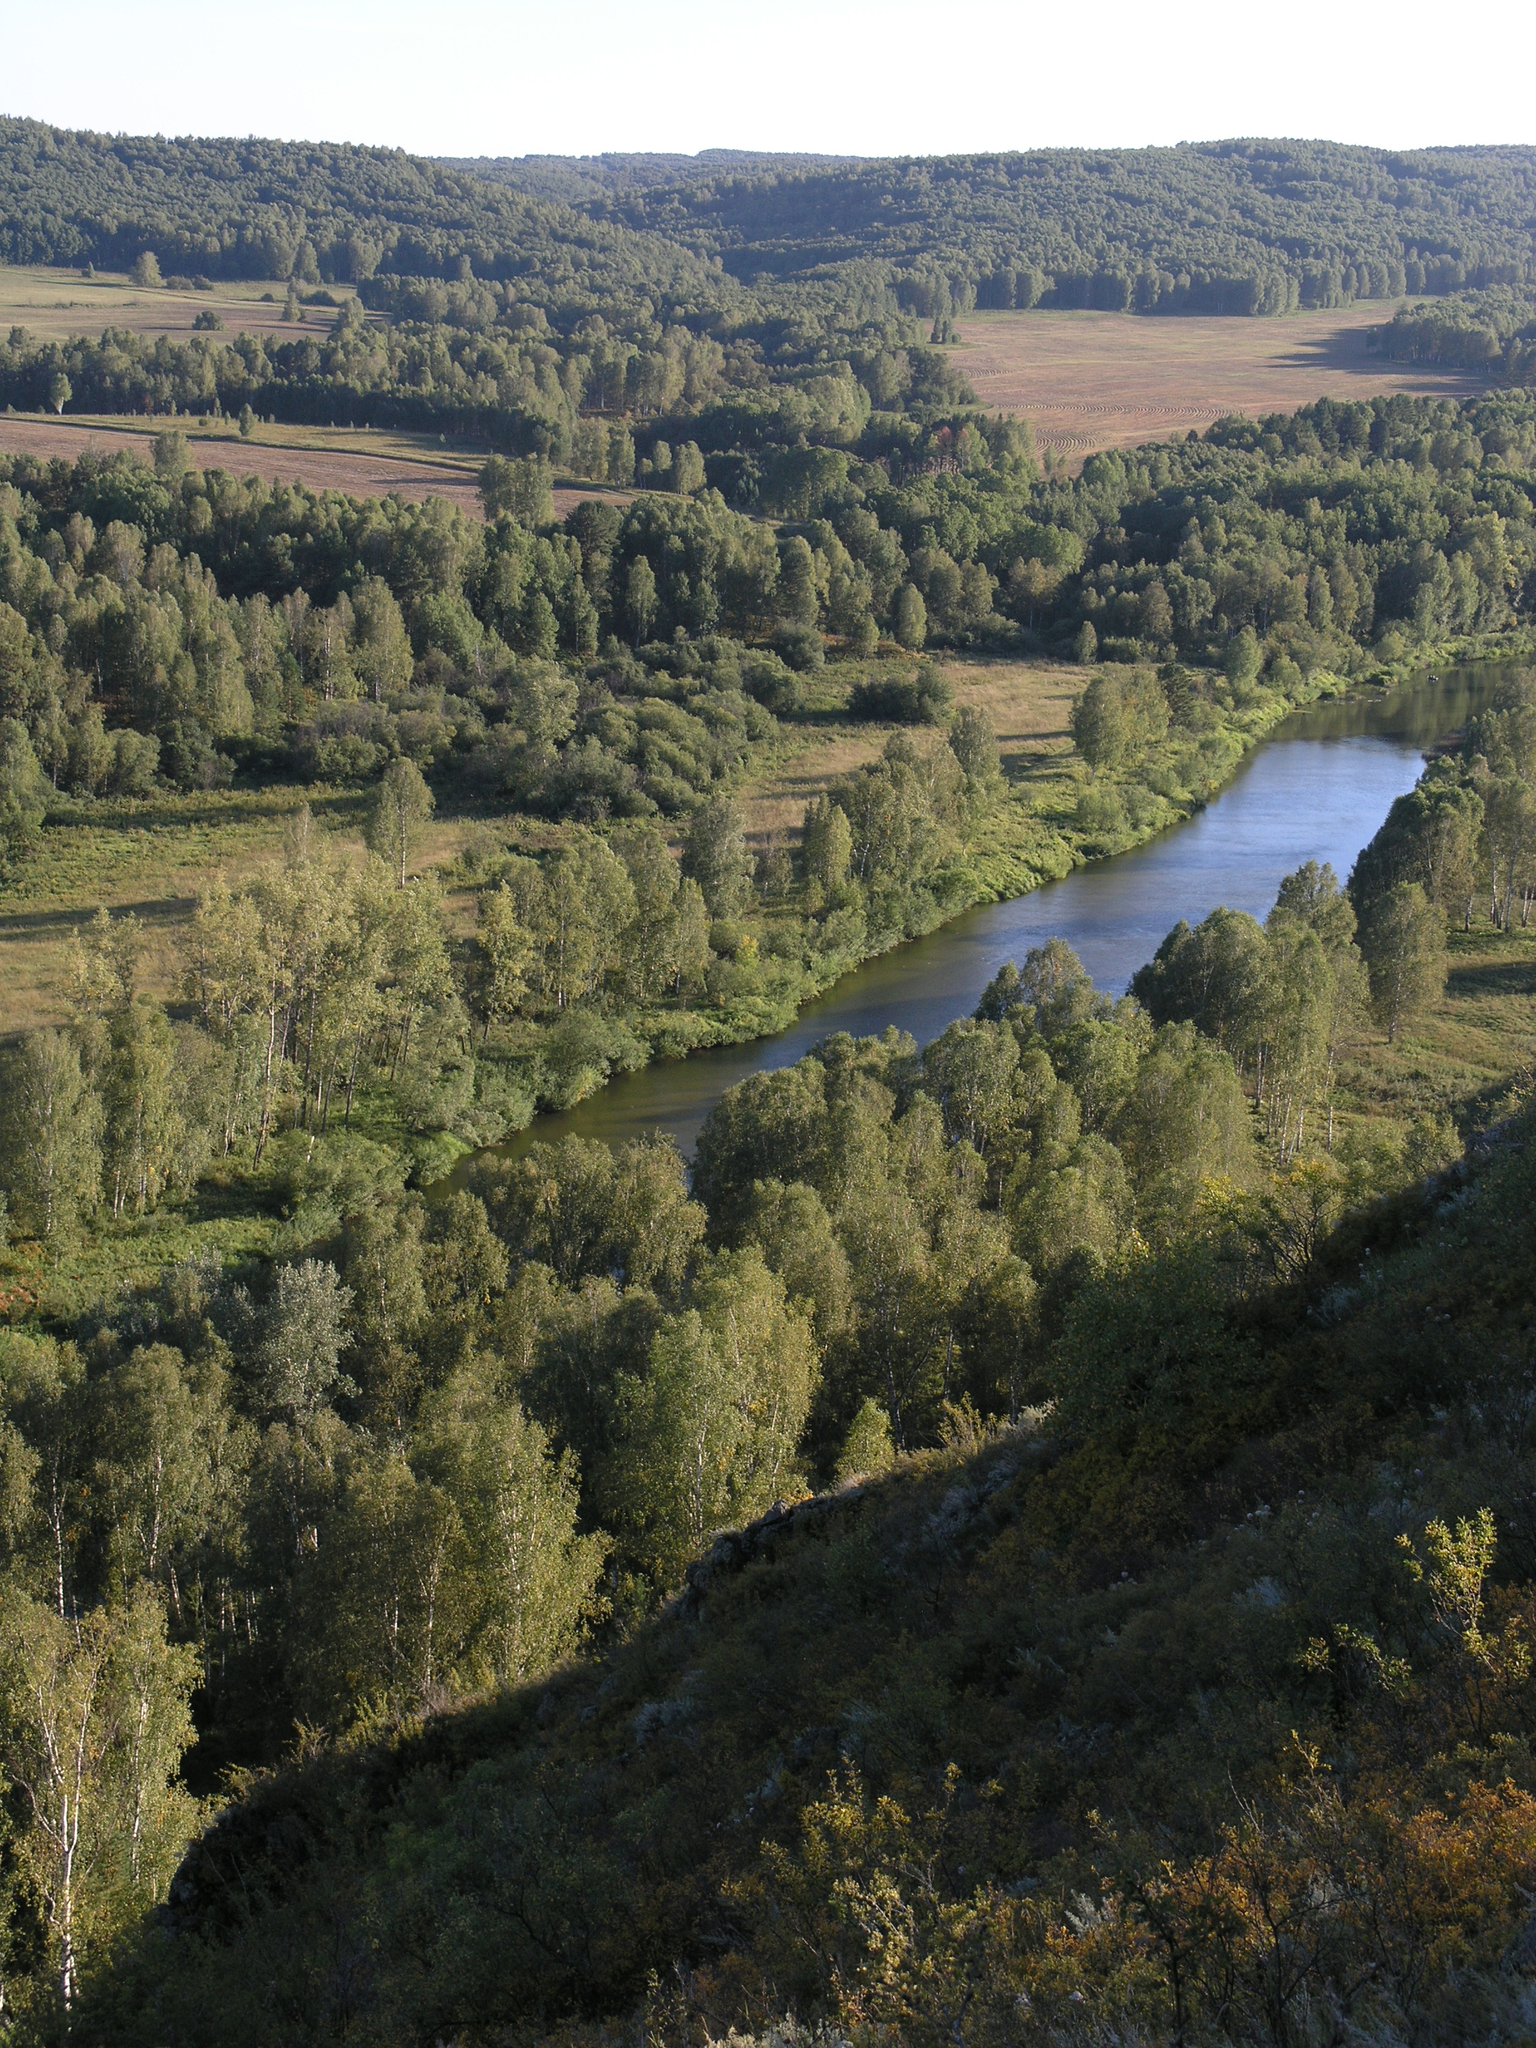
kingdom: Plantae
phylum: Tracheophyta
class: Magnoliopsida
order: Fagales
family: Betulaceae
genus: Betula
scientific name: Betula pendula
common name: Silver birch
